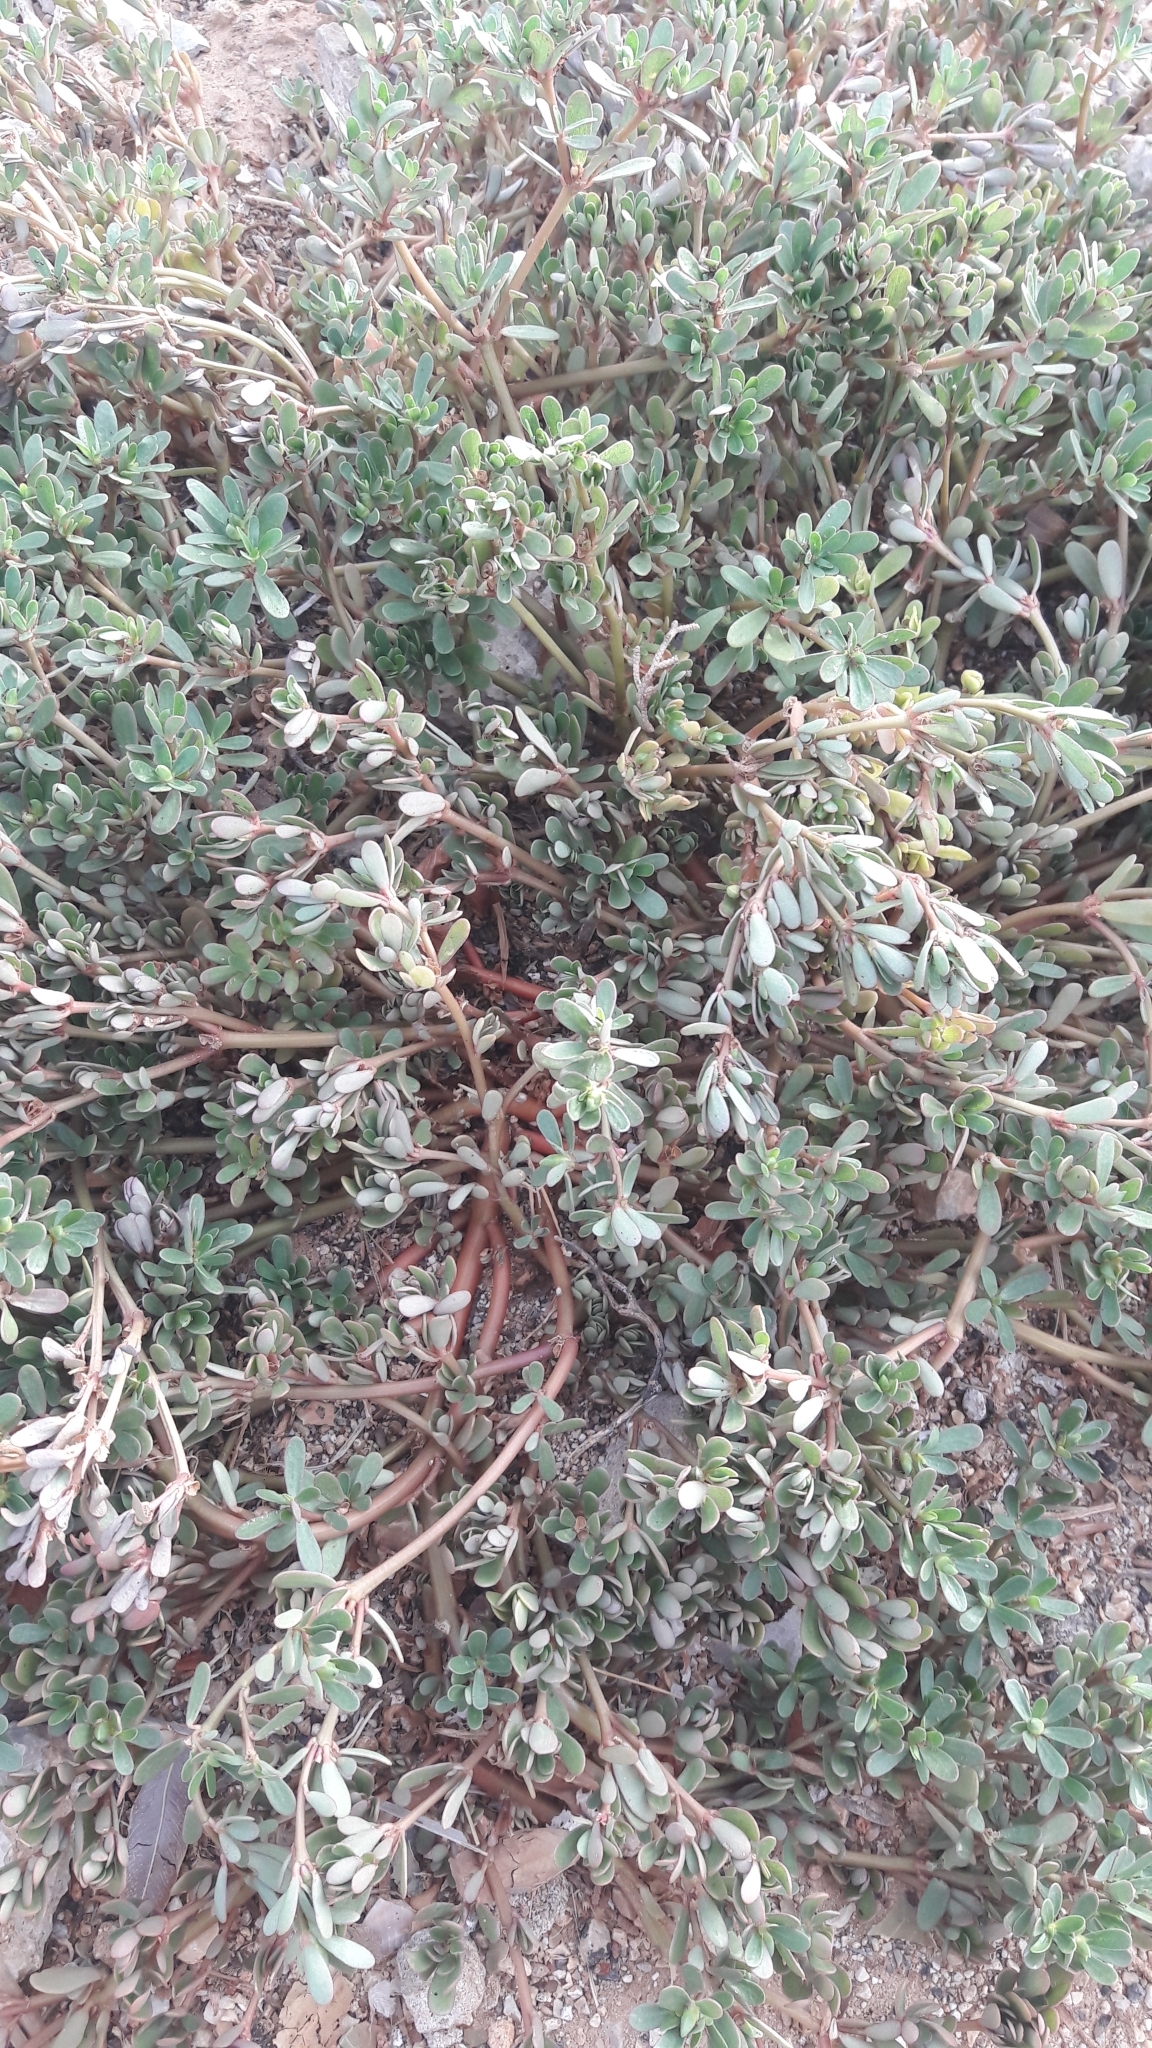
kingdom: Plantae
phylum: Tracheophyta
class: Magnoliopsida
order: Caryophyllales
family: Portulacaceae
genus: Portulaca
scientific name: Portulaca oleracea
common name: Common purslane
